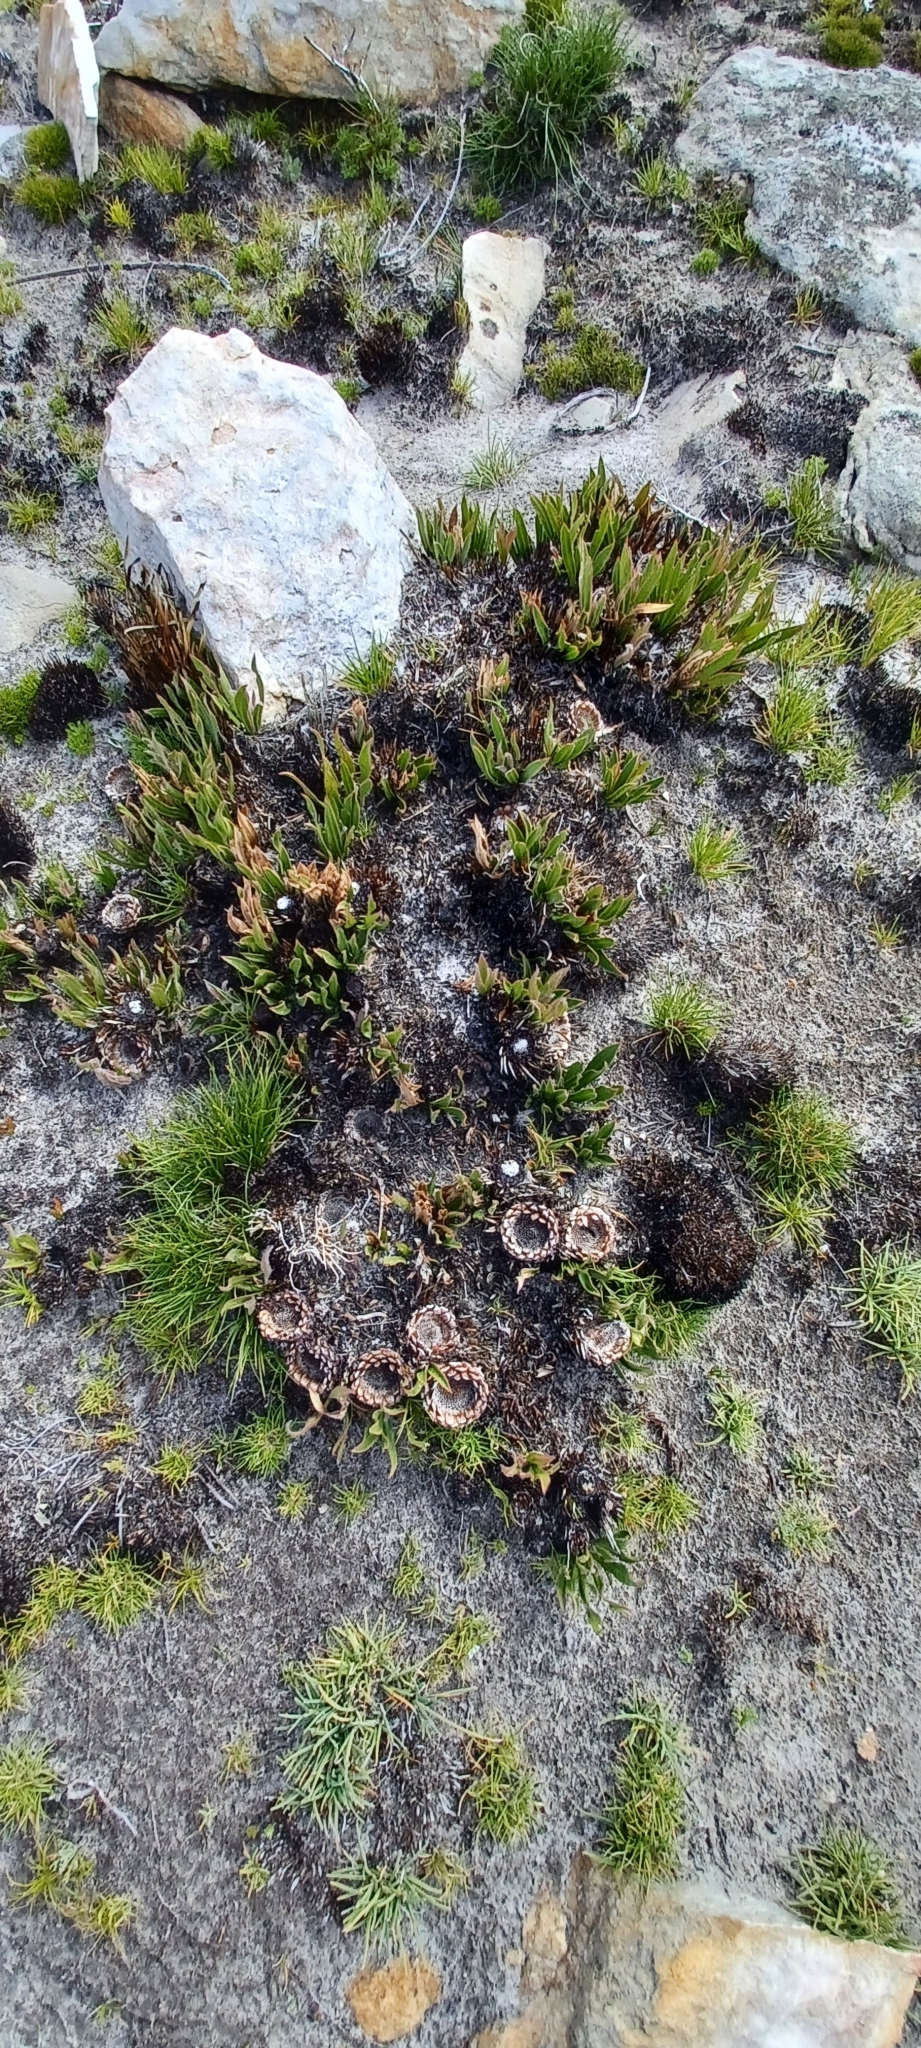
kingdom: Plantae
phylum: Tracheophyta
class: Magnoliopsida
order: Proteales
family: Proteaceae
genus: Protea
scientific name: Protea scolopendriifolia
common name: Harts-tongue-fern sugarbush
